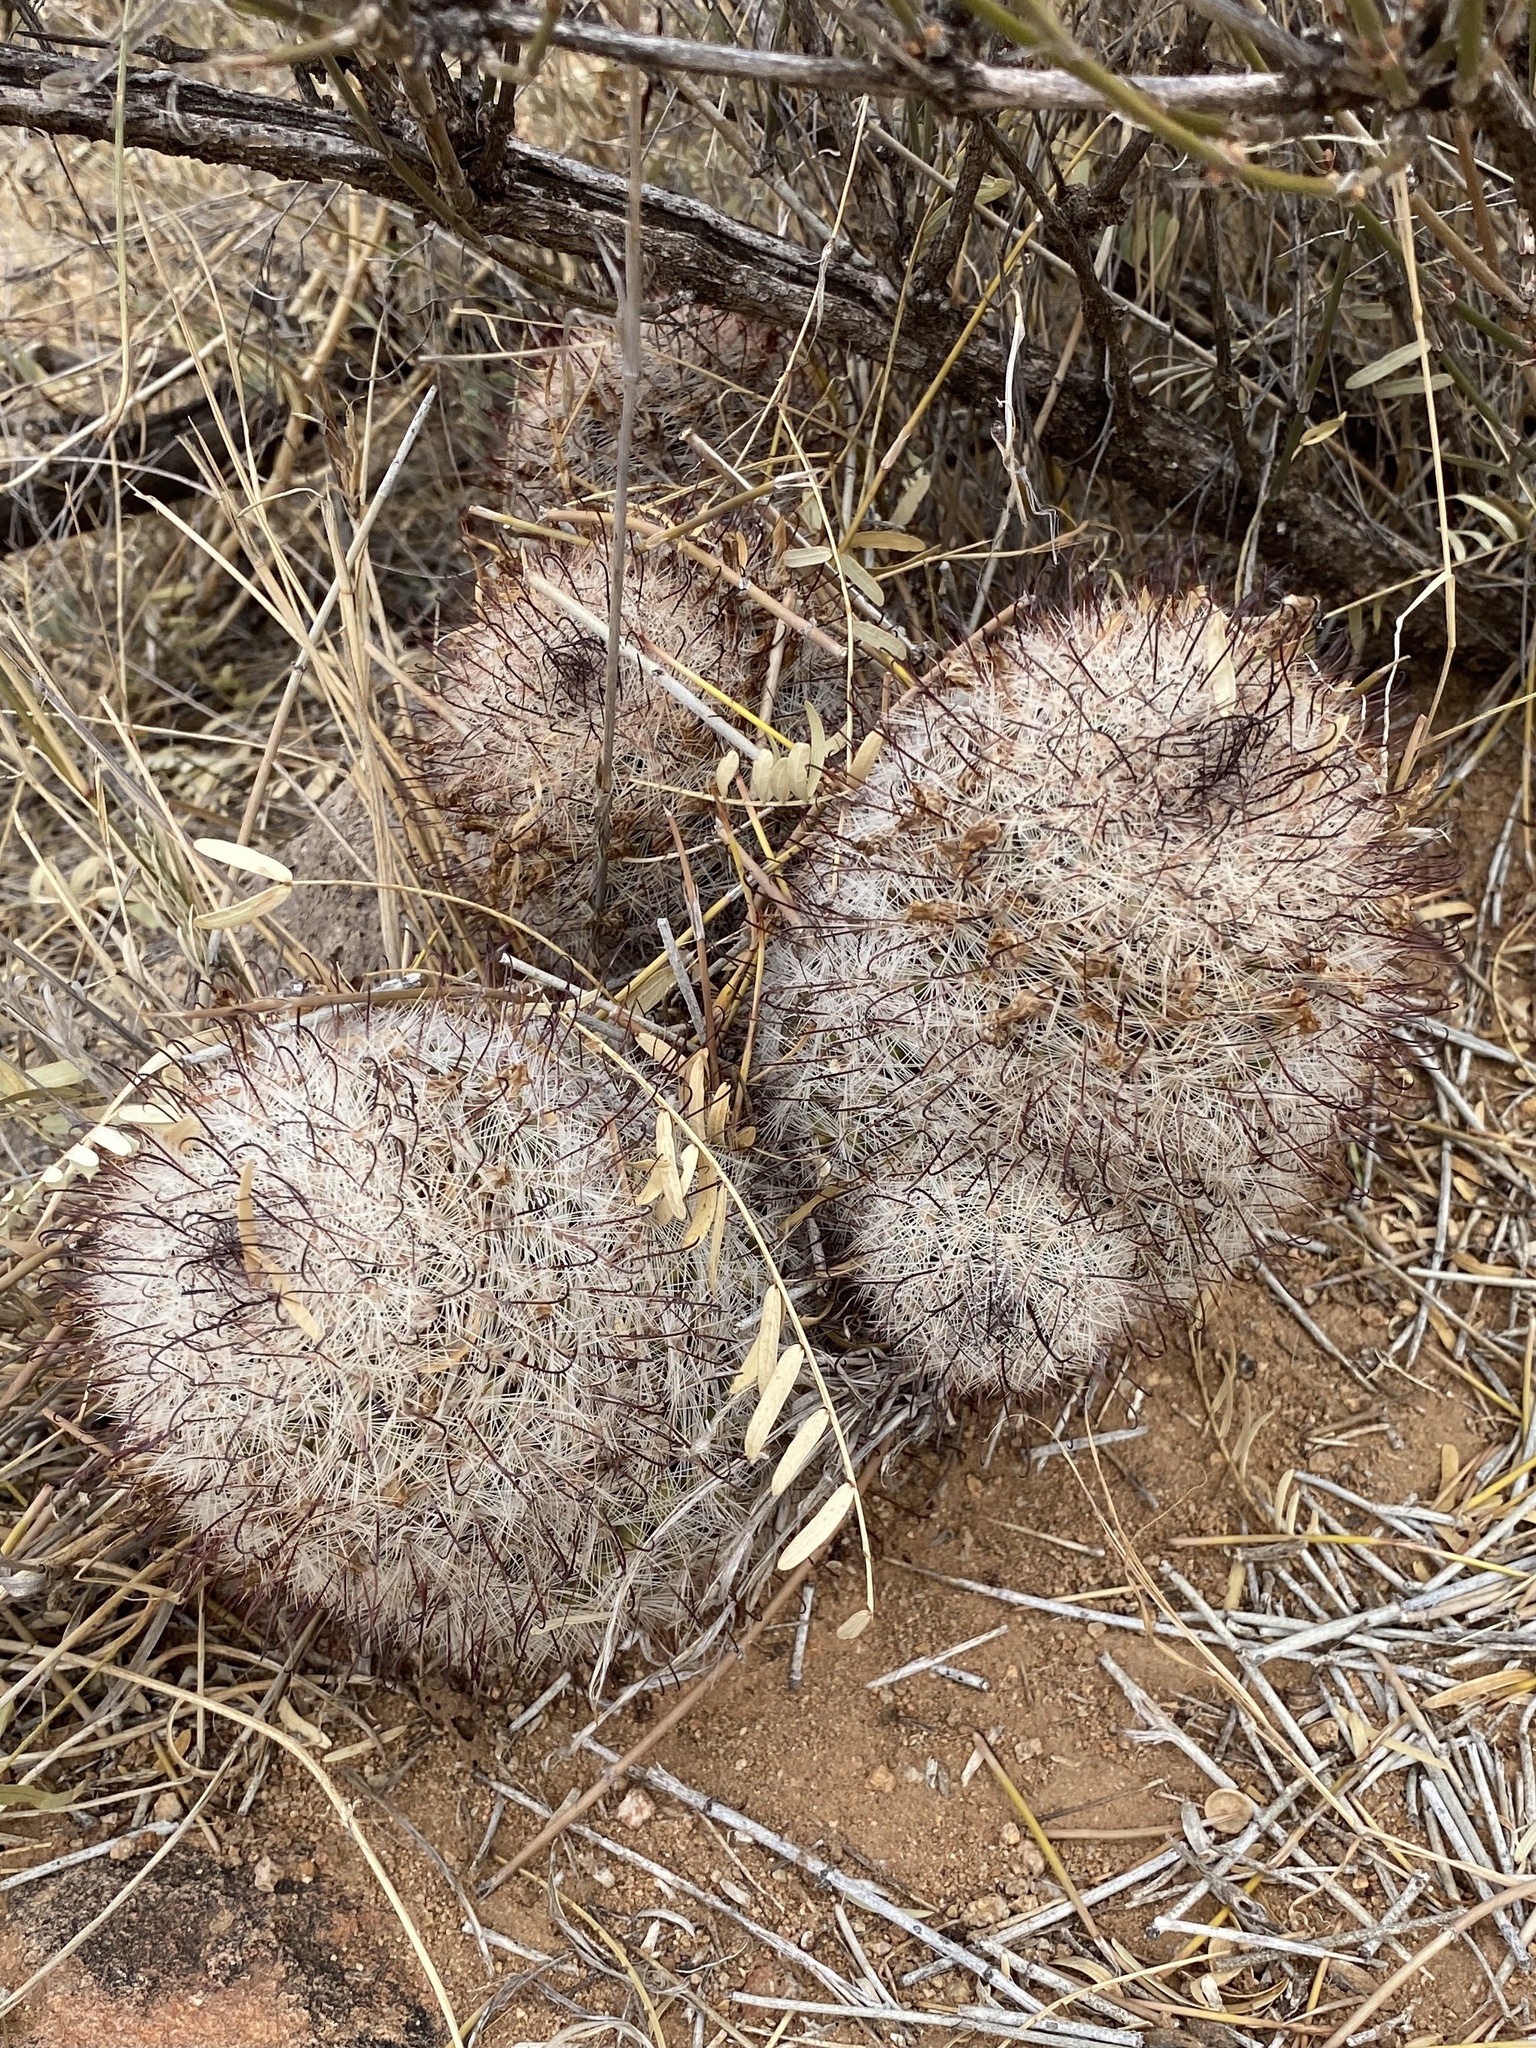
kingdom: Plantae
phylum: Tracheophyta
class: Magnoliopsida
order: Caryophyllales
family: Cactaceae
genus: Cochemiea
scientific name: Cochemiea grahamii
